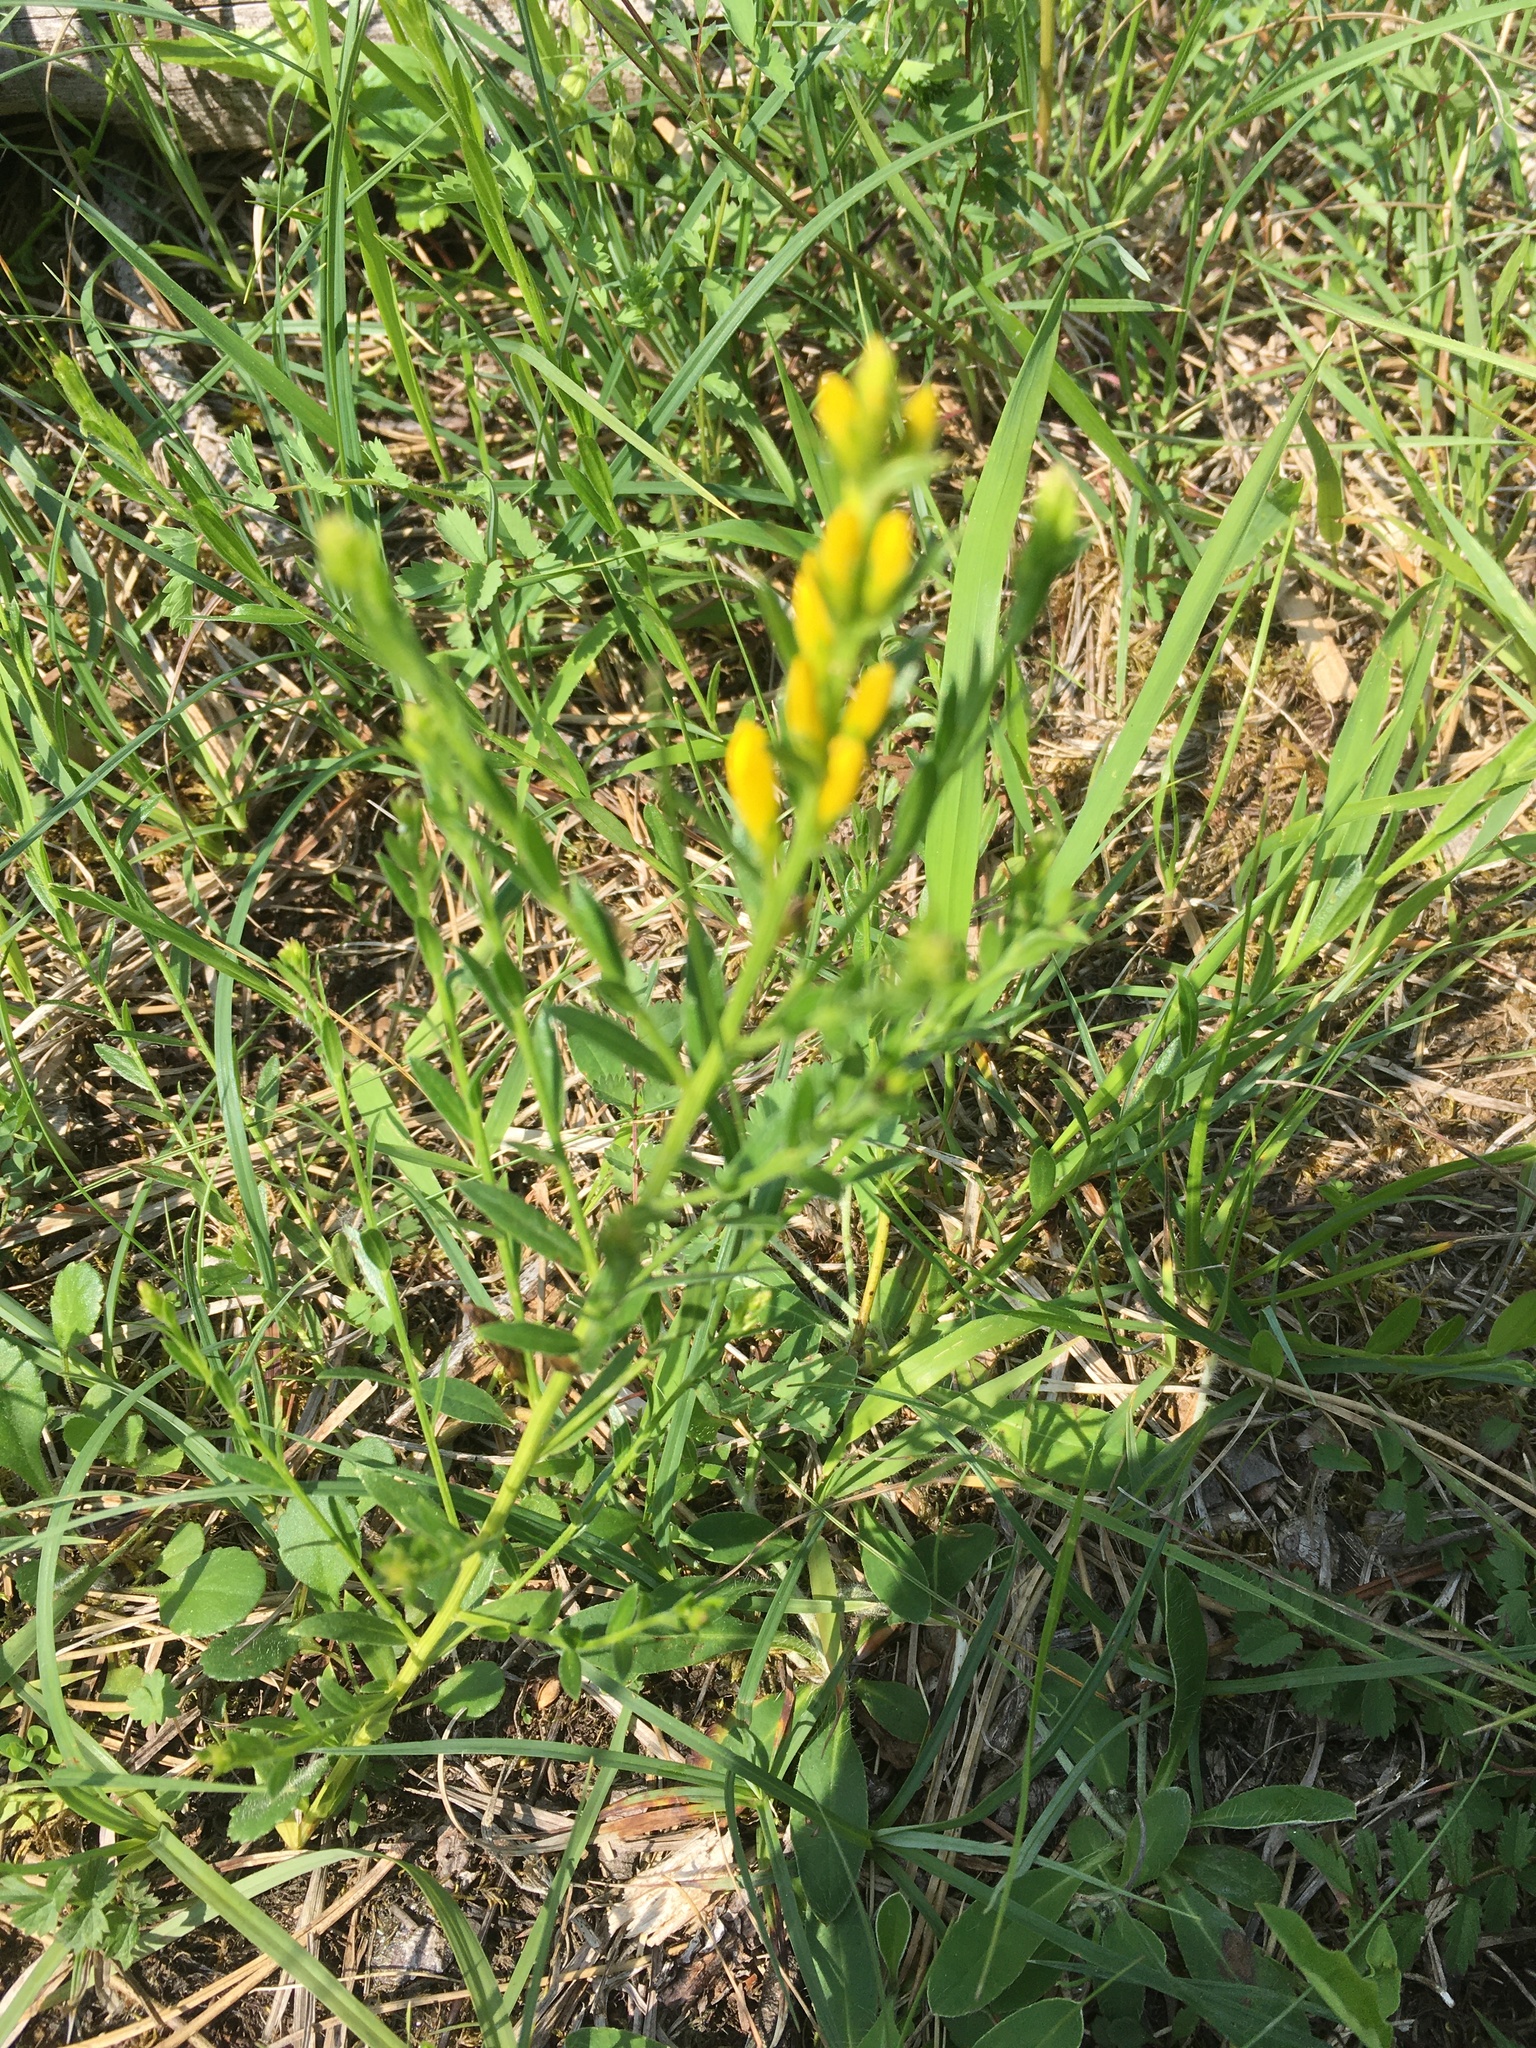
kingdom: Plantae
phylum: Tracheophyta
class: Magnoliopsida
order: Fabales
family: Fabaceae
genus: Genista
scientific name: Genista tinctoria
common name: Dyer's greenweed
